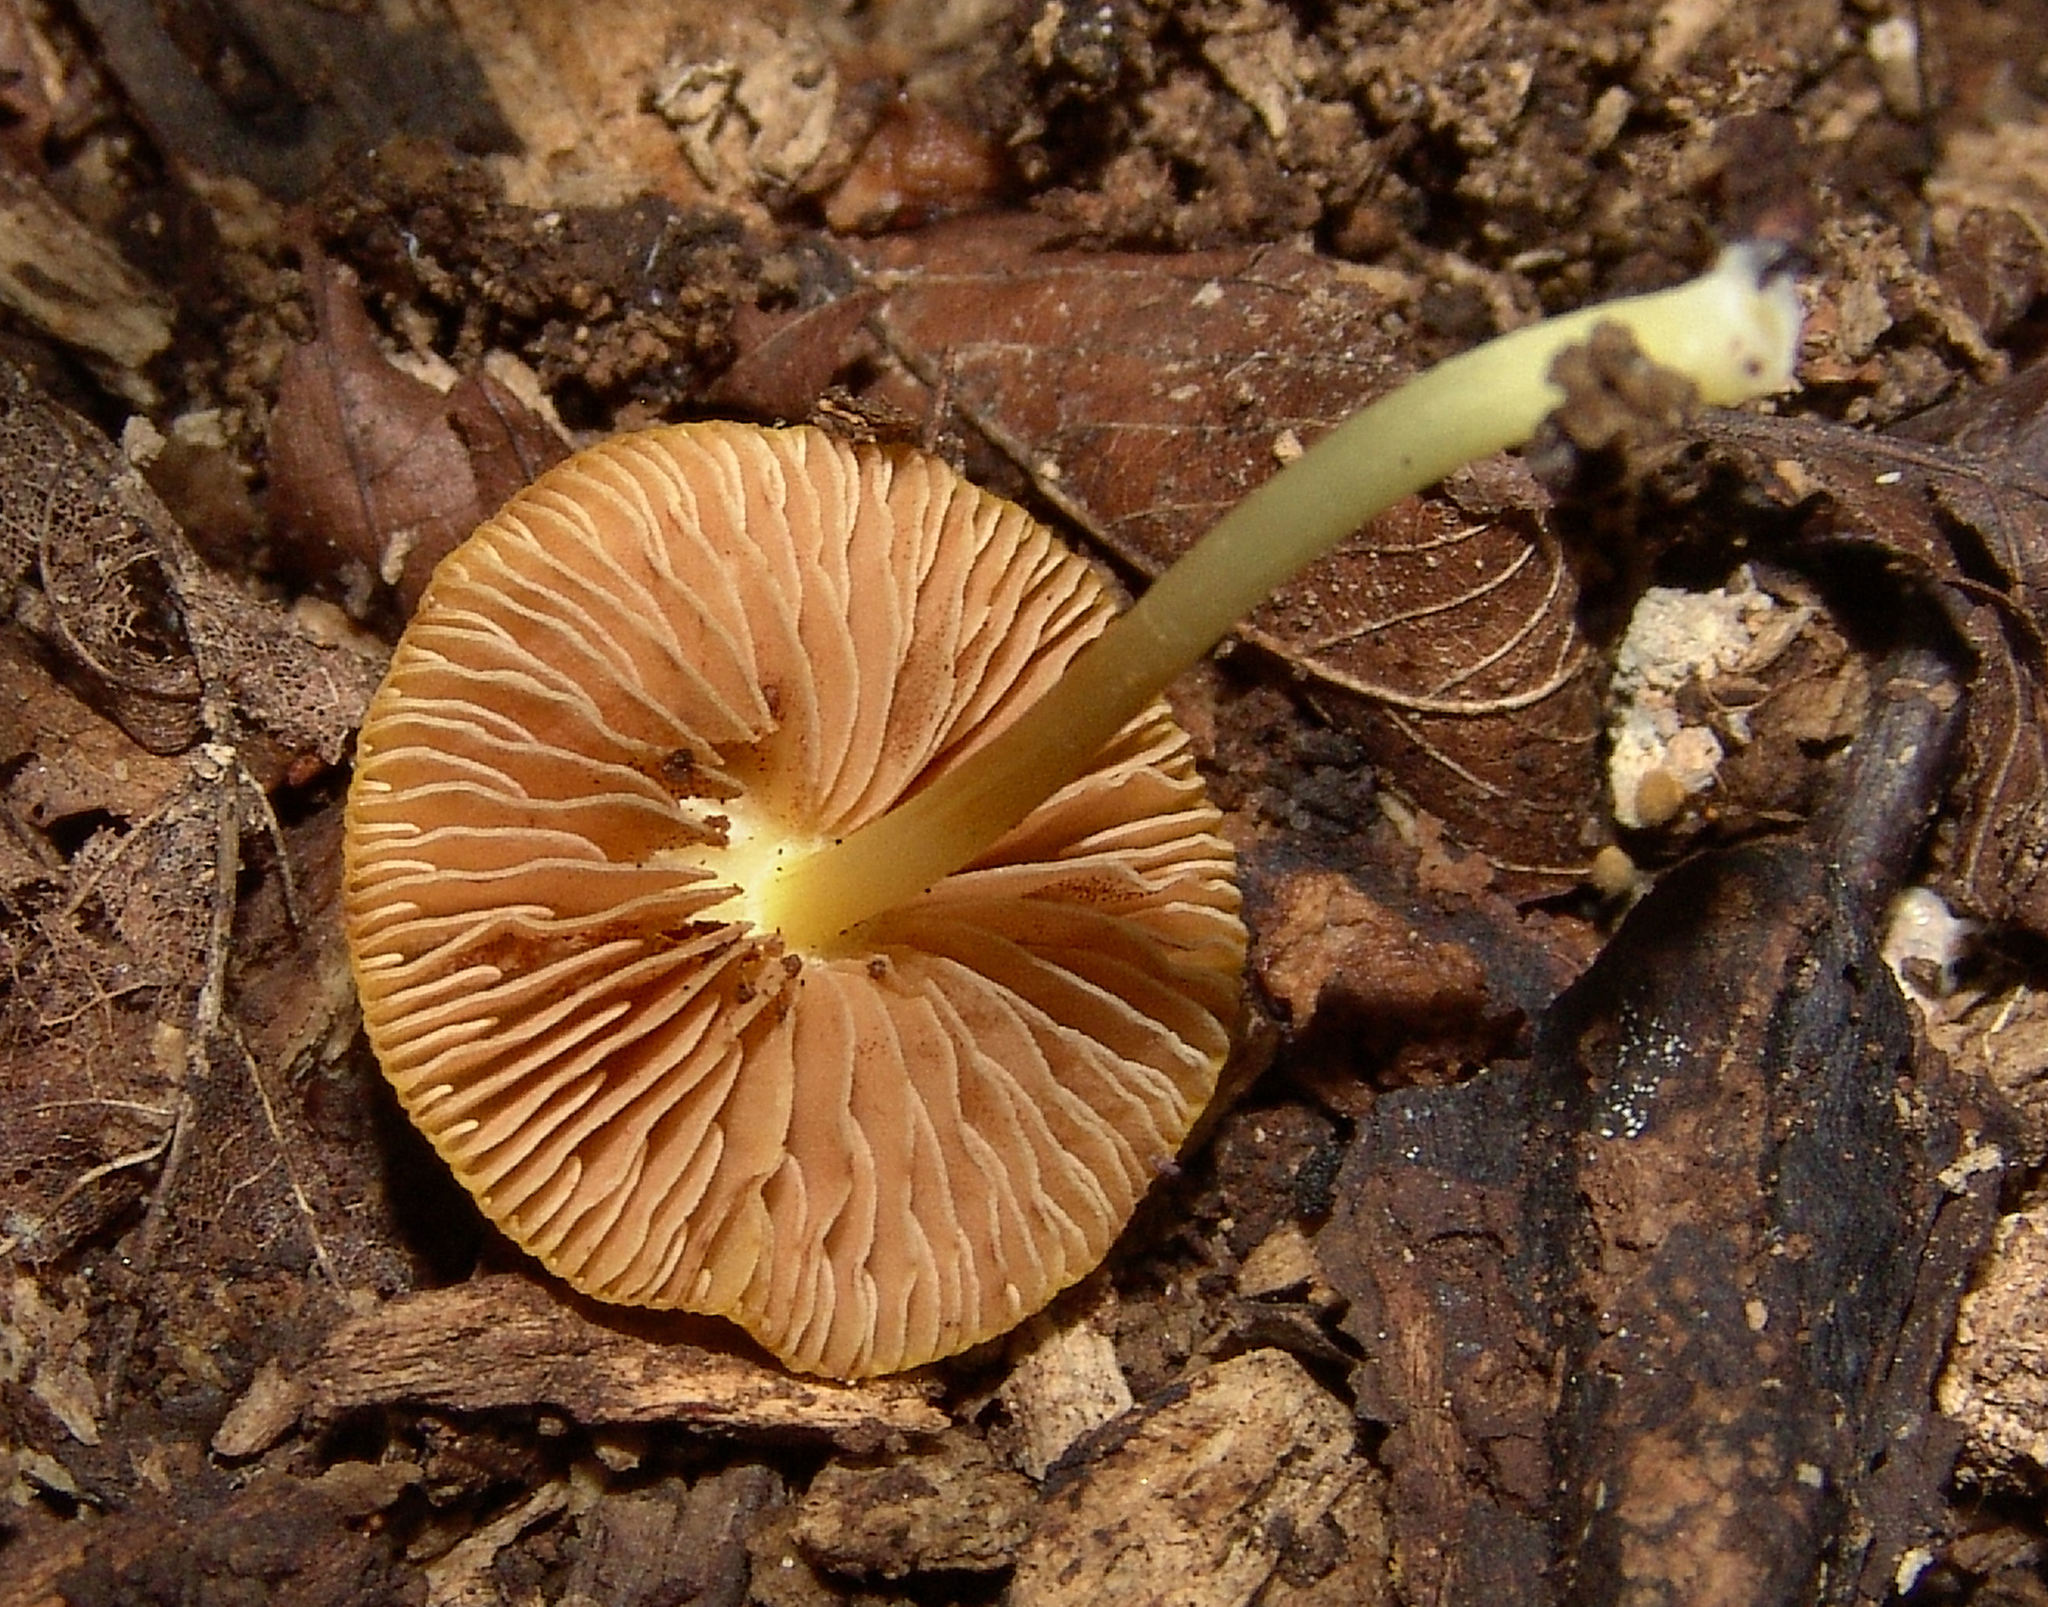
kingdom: Fungi
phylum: Basidiomycota
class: Agaricomycetes
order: Agaricales
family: Pluteaceae
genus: Pluteus
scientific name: Pluteus chrysophlebius
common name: Yellow deer mushroom
